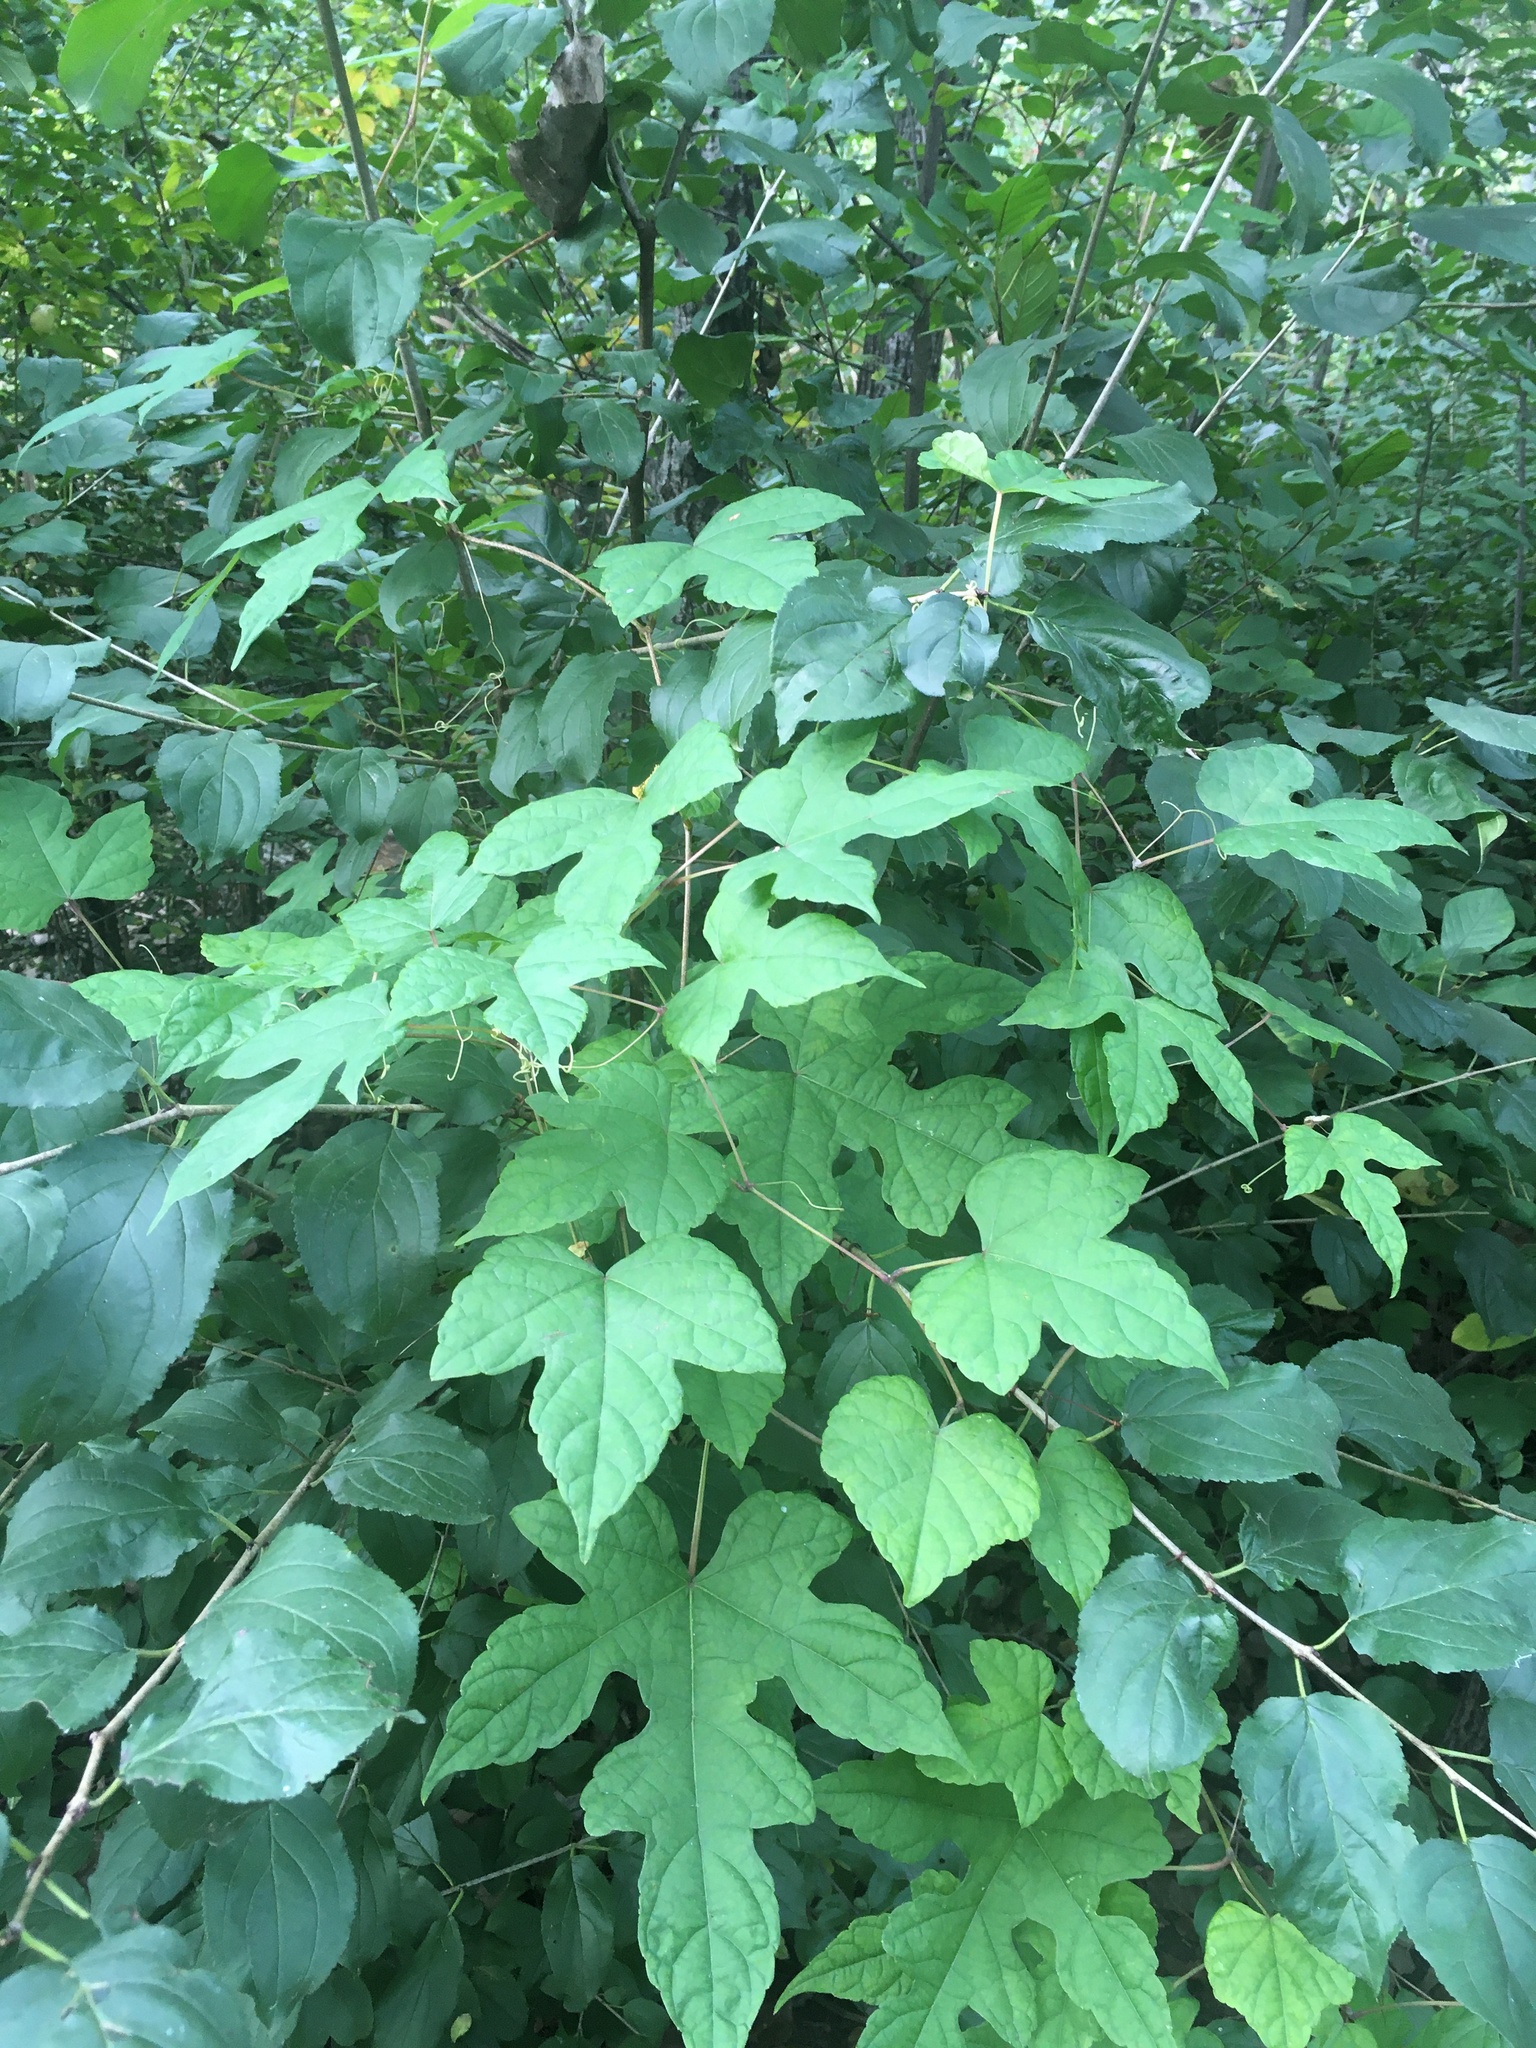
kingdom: Plantae
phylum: Tracheophyta
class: Magnoliopsida
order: Vitales
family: Vitaceae
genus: Ampelopsis
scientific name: Ampelopsis glandulosa
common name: Amur peppervine
